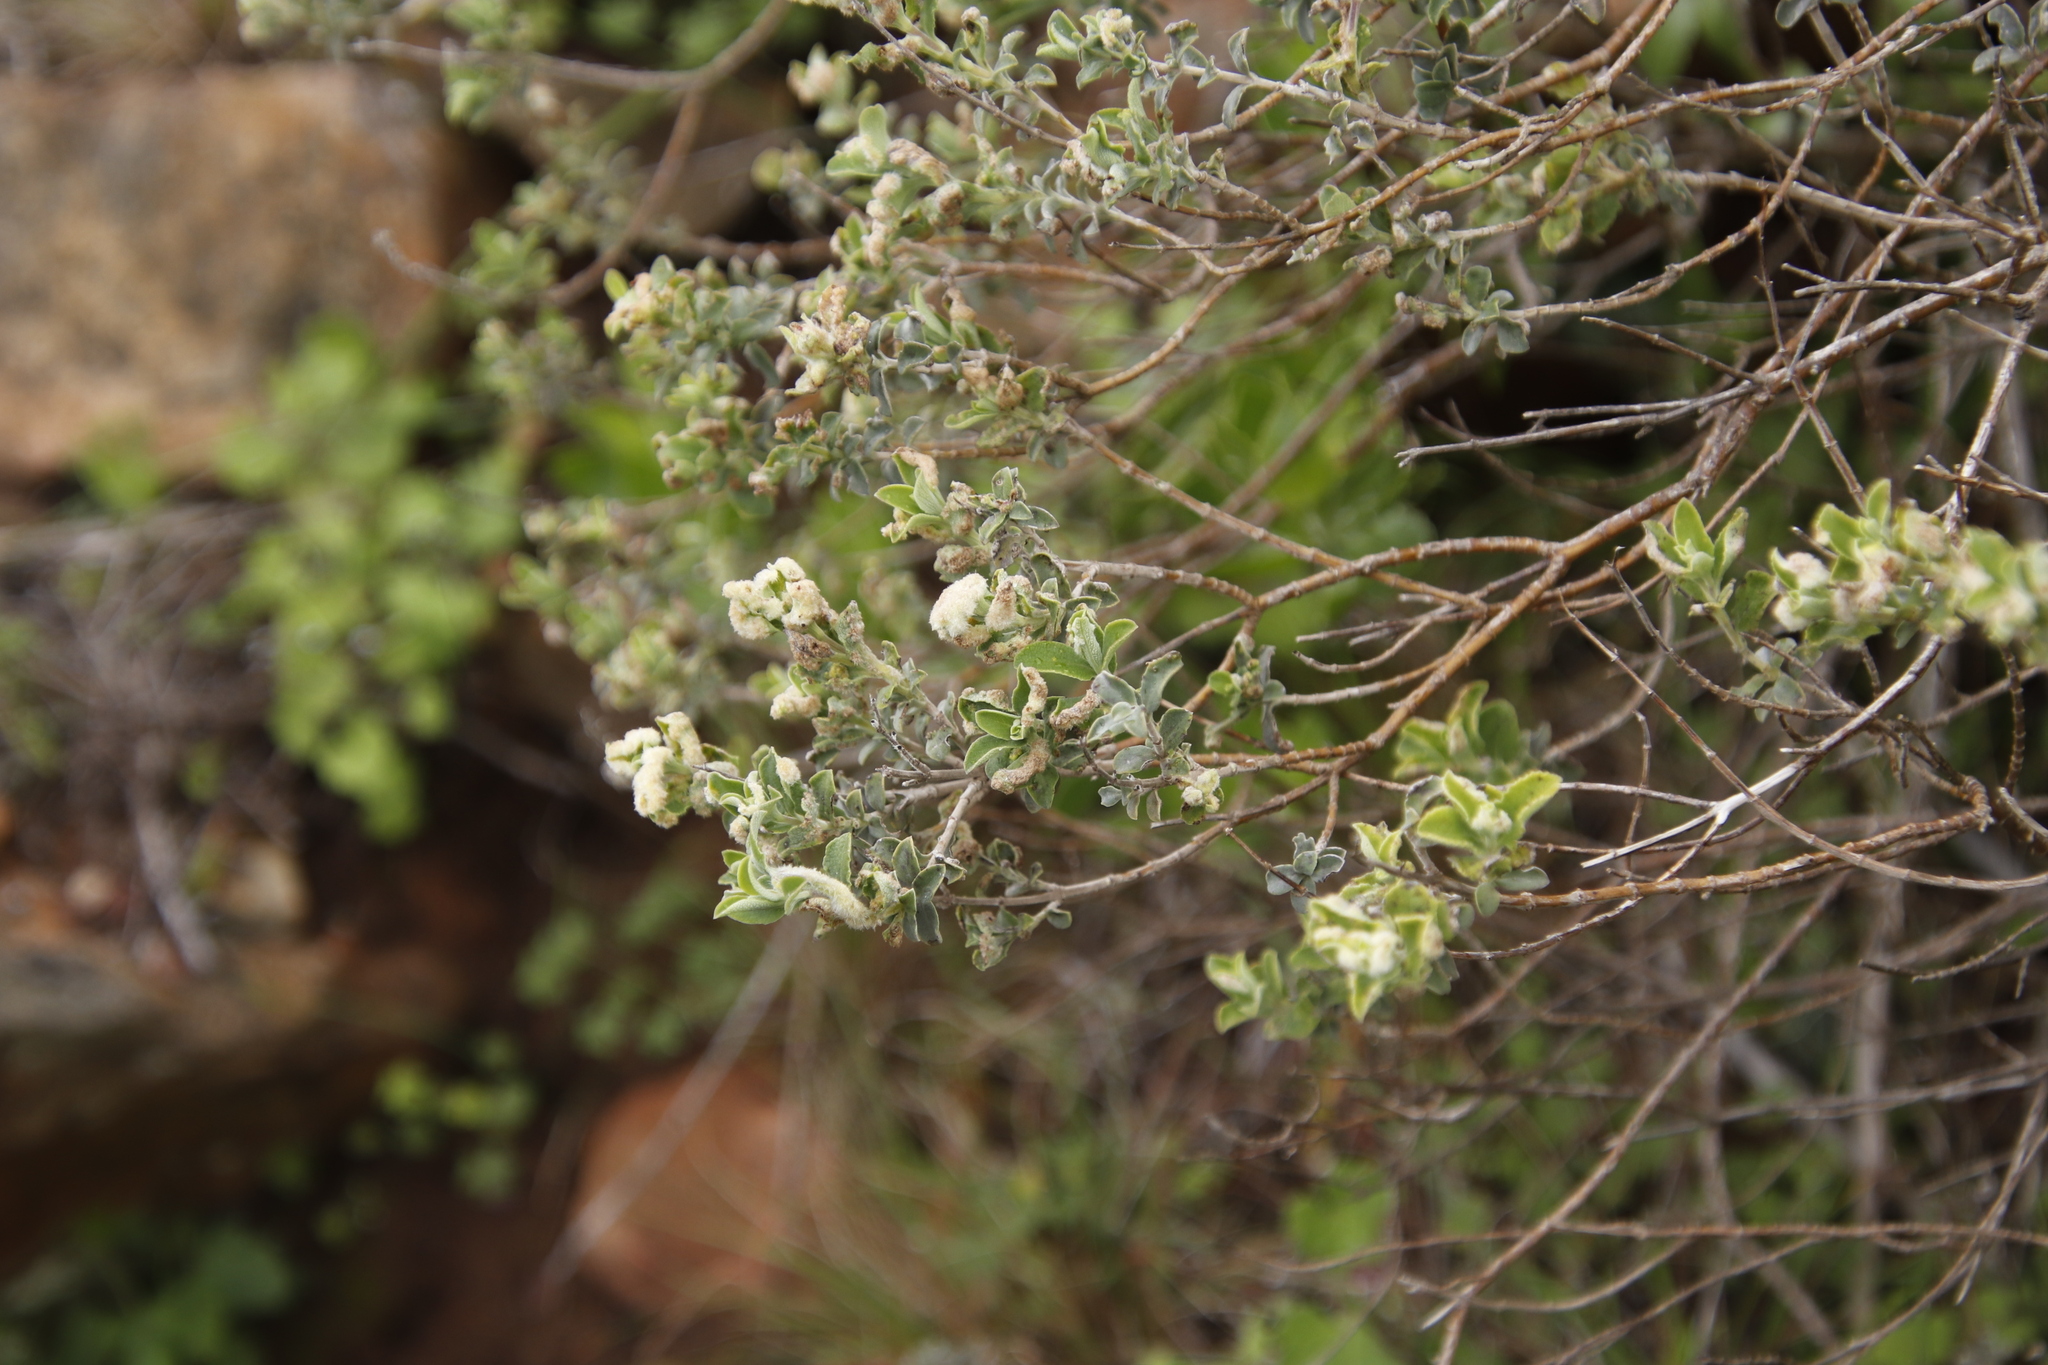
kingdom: Plantae
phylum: Tracheophyta
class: Magnoliopsida
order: Lamiales
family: Lamiaceae
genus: Salvia
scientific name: Salvia africana
